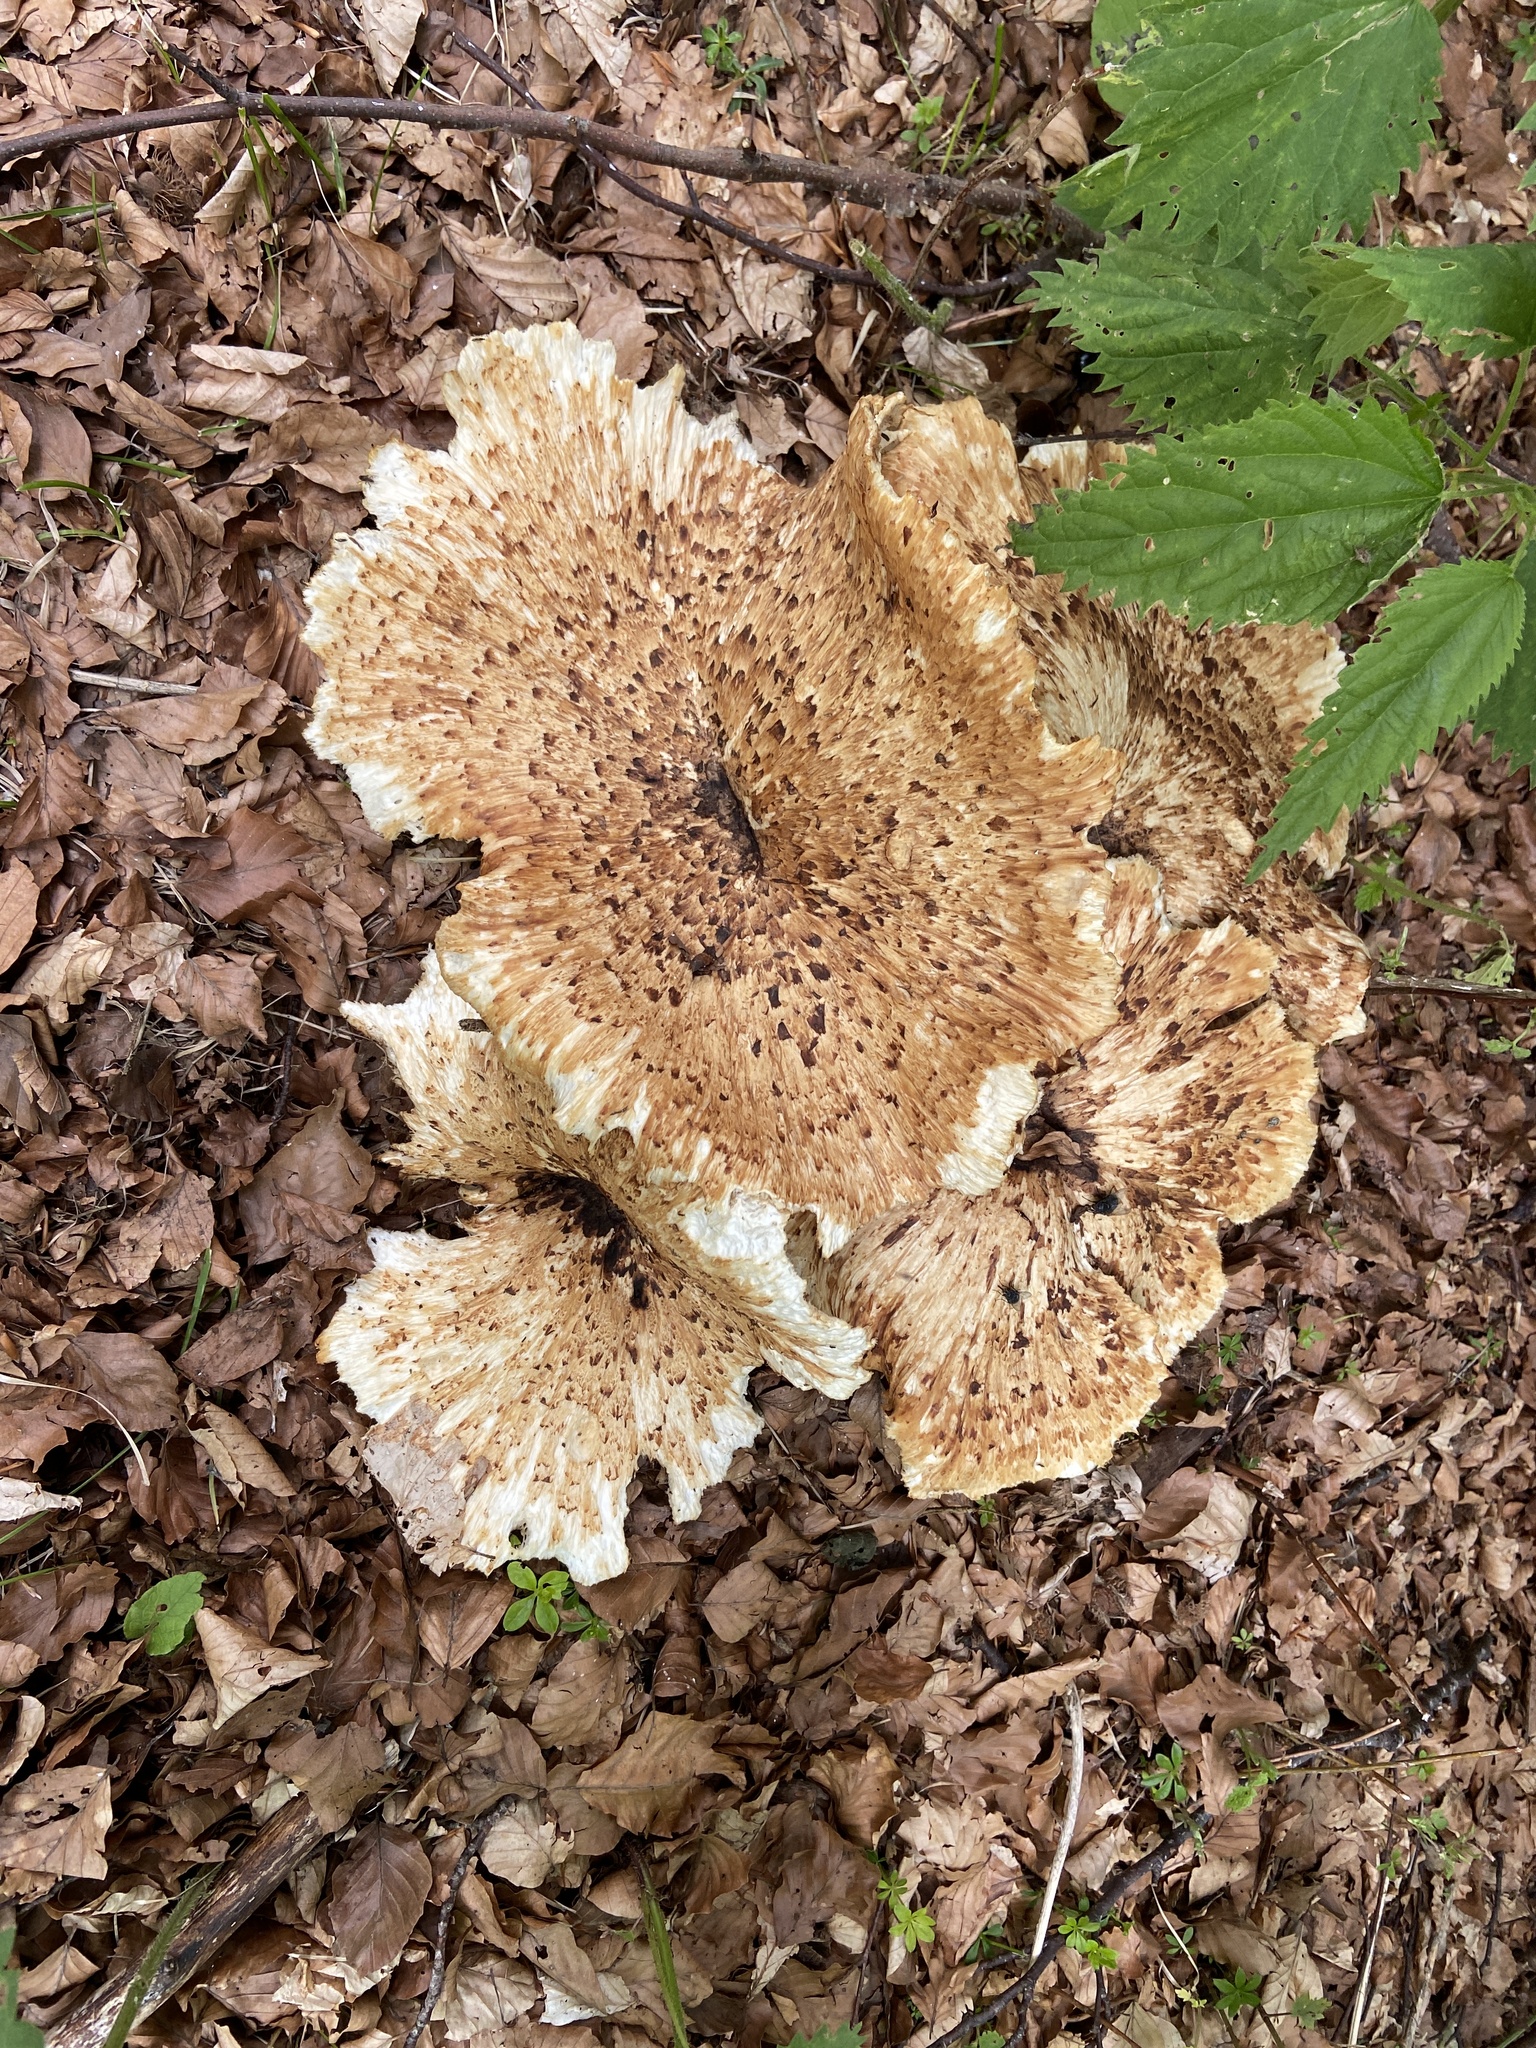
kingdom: Fungi
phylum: Basidiomycota
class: Agaricomycetes
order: Polyporales
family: Polyporaceae
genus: Cerioporus
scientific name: Cerioporus squamosus
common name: Dryad's saddle
